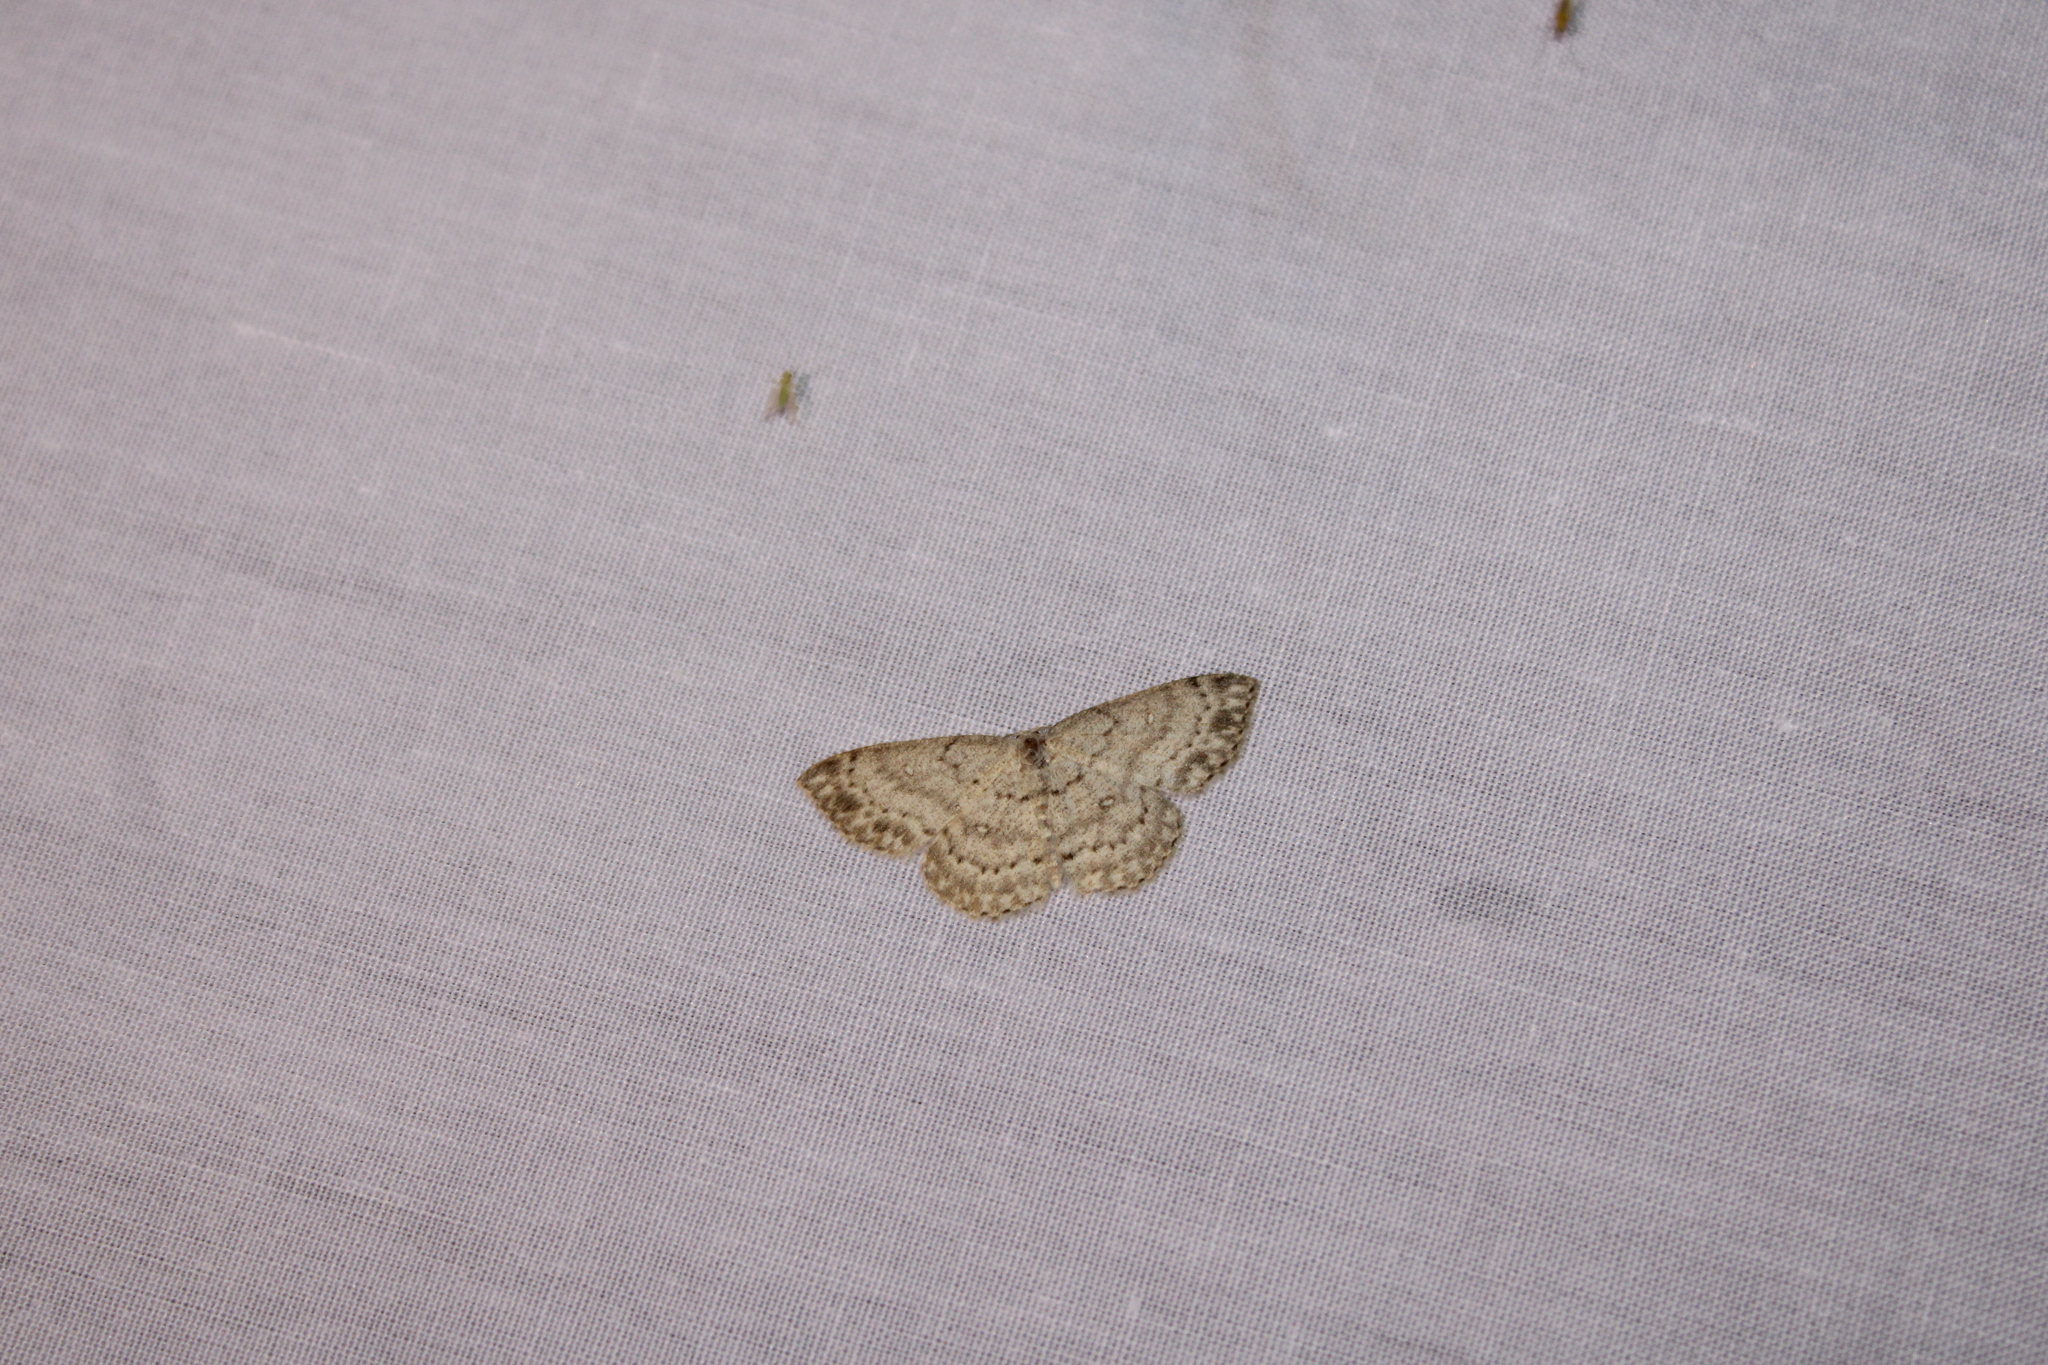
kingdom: Animalia
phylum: Arthropoda
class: Insecta
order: Lepidoptera
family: Geometridae
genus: Cyclophora
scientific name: Cyclophora pendulinaria
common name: Sweet fern geometer
